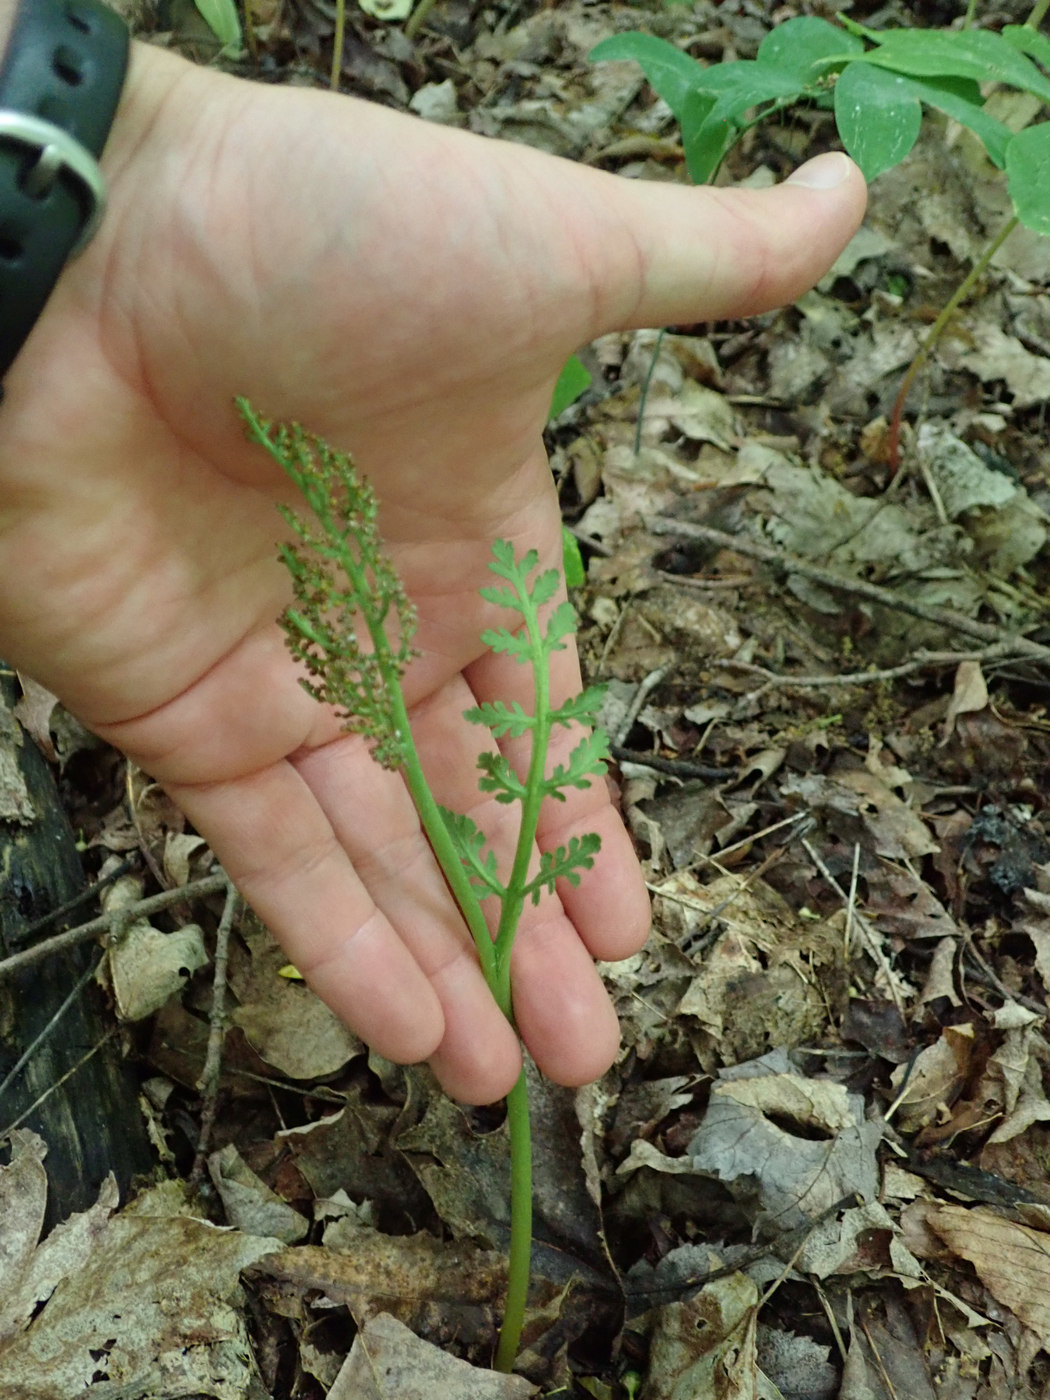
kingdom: Plantae
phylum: Tracheophyta
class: Polypodiopsida
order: Ophioglossales
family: Ophioglossaceae
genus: Botrychium
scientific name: Botrychium matricariifolium
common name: Branched moonwort
